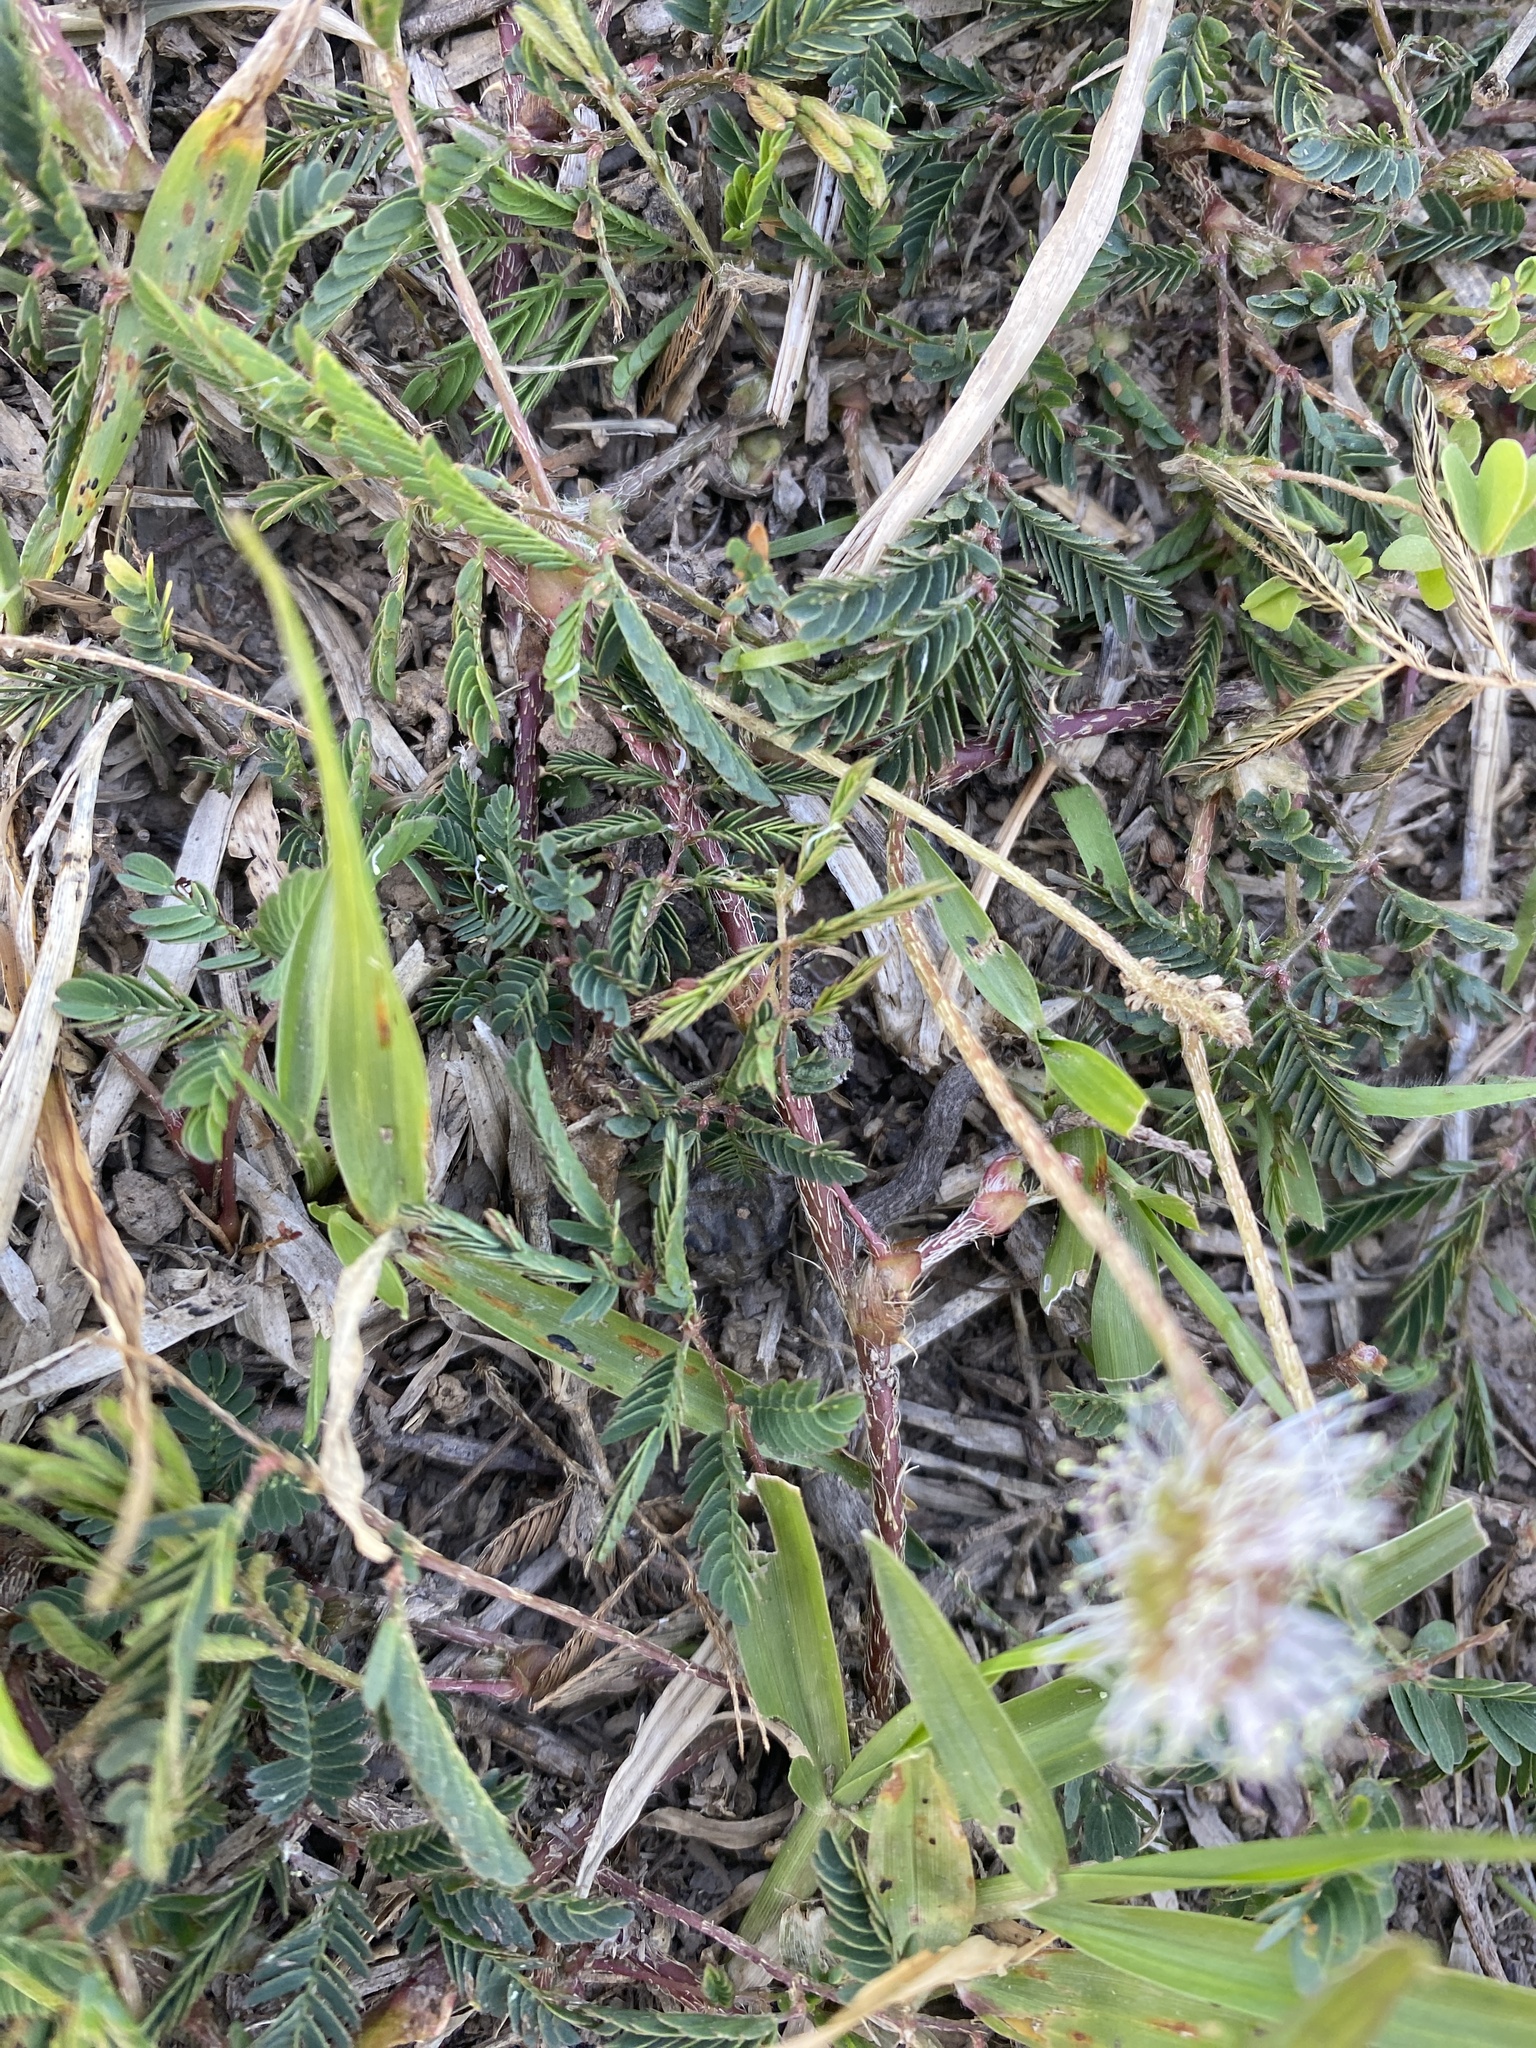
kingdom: Plantae
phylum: Tracheophyta
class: Magnoliopsida
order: Fabales
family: Fabaceae
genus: Mimosa
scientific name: Mimosa strigillosa
